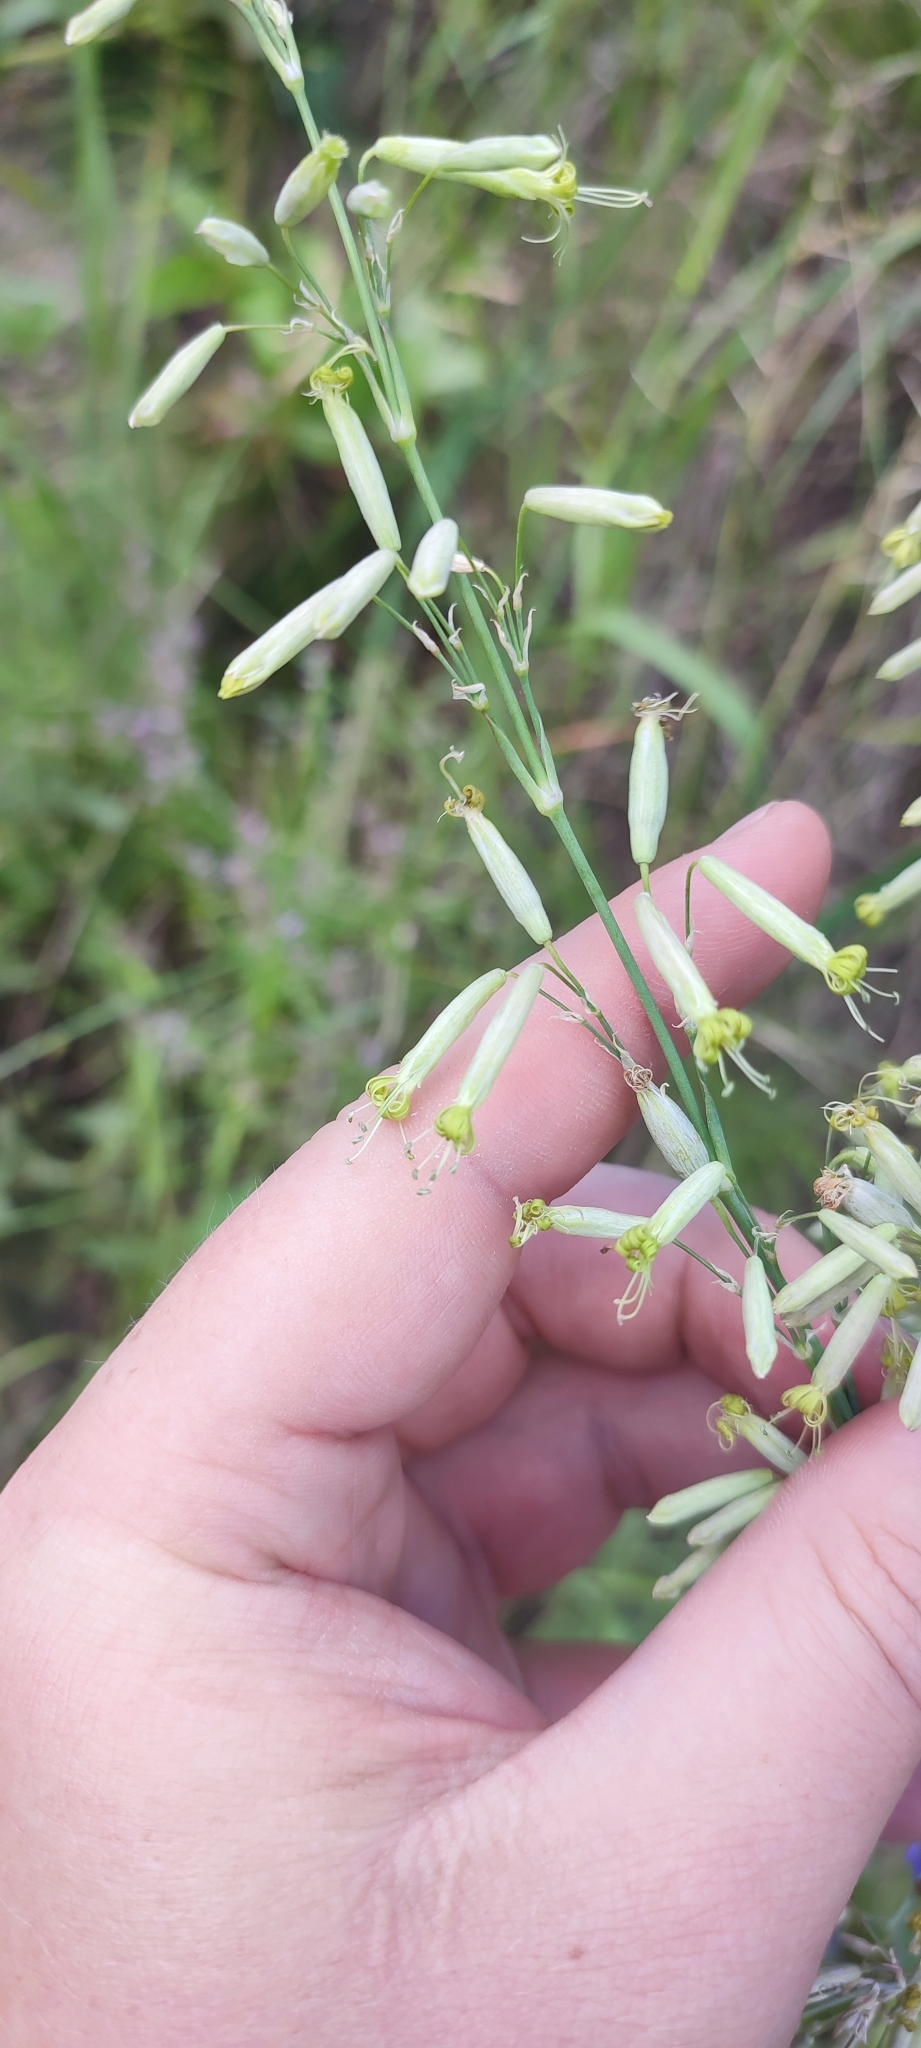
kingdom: Plantae
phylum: Tracheophyta
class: Magnoliopsida
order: Caryophyllales
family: Caryophyllaceae
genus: Silene
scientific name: Silene chlorantha
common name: Yellowgreen catchfly
